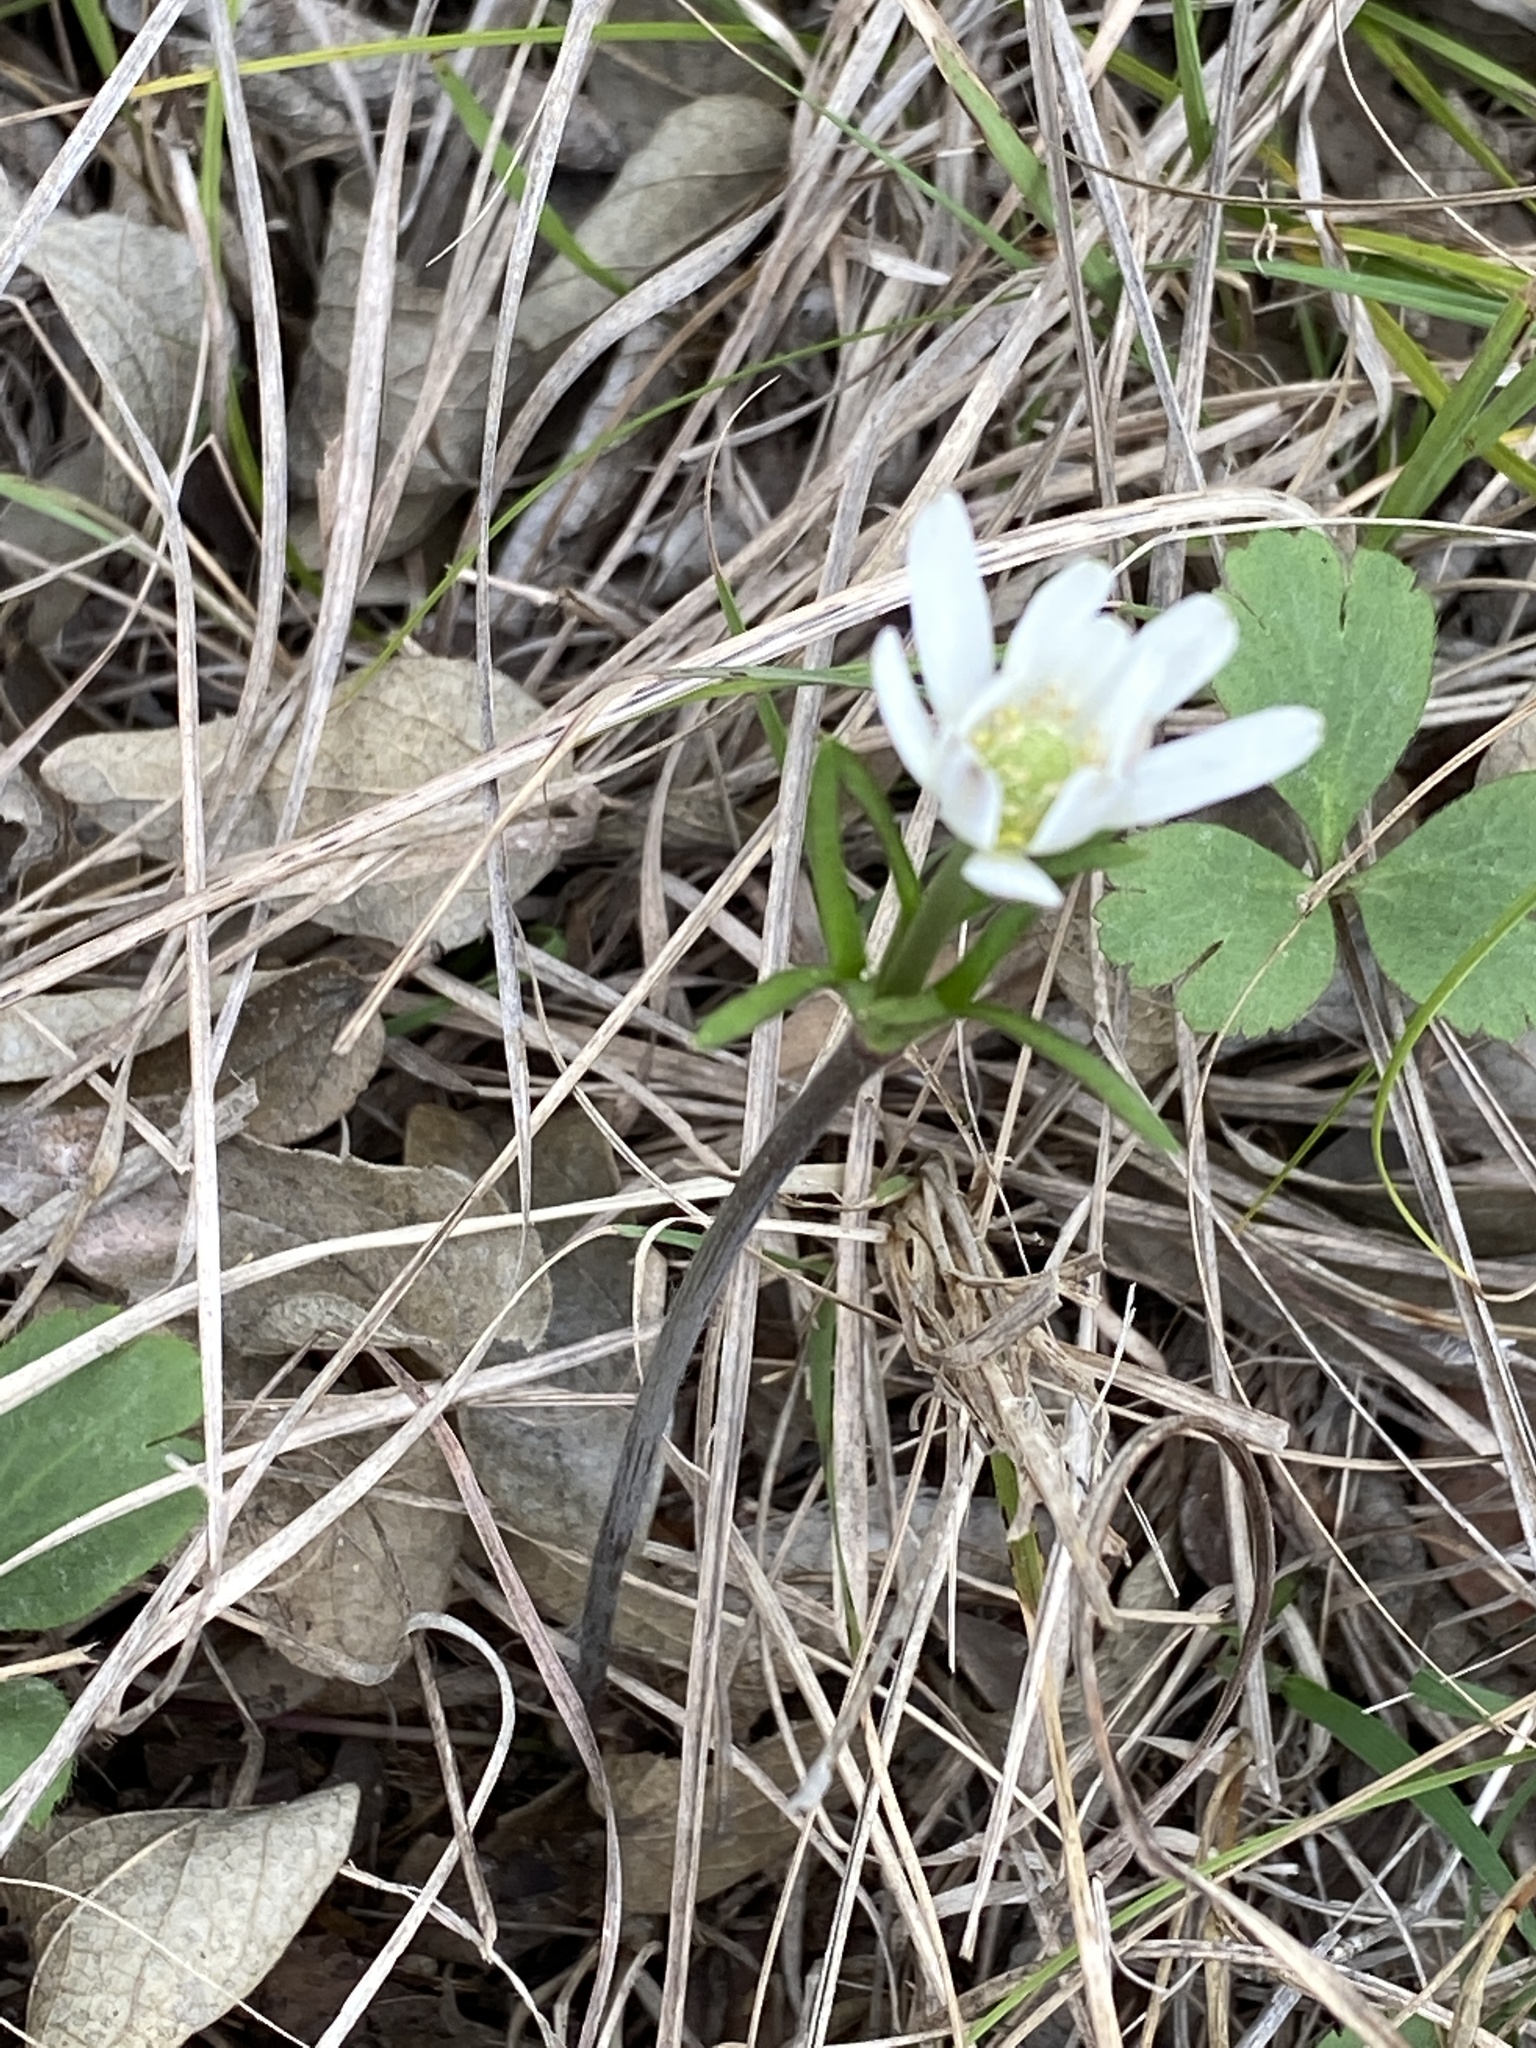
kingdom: Plantae
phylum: Tracheophyta
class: Magnoliopsida
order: Ranunculales
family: Ranunculaceae
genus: Anemone
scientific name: Anemone berlandieri
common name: Ten-petal anemone
